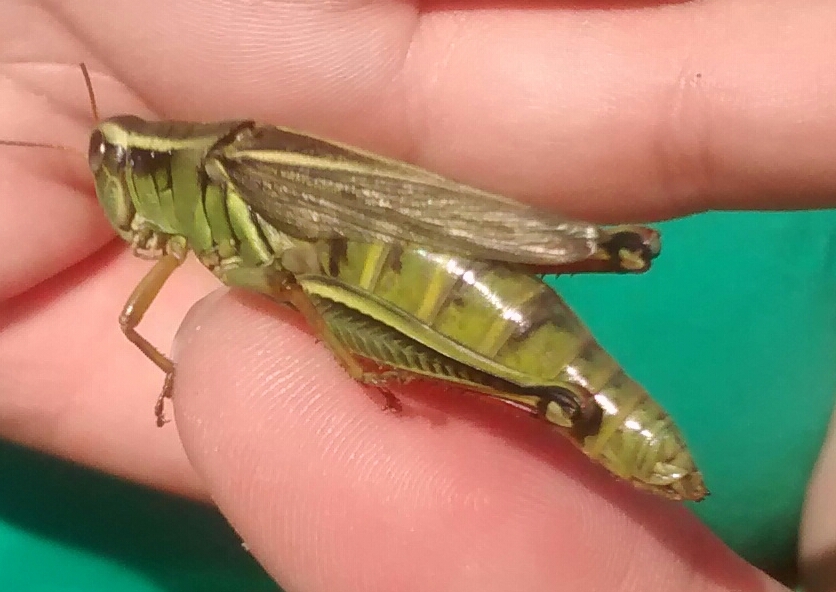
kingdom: Animalia
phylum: Arthropoda
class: Insecta
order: Orthoptera
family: Acrididae
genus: Melanoplus
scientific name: Melanoplus bivittatus
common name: Two-striped grasshopper
